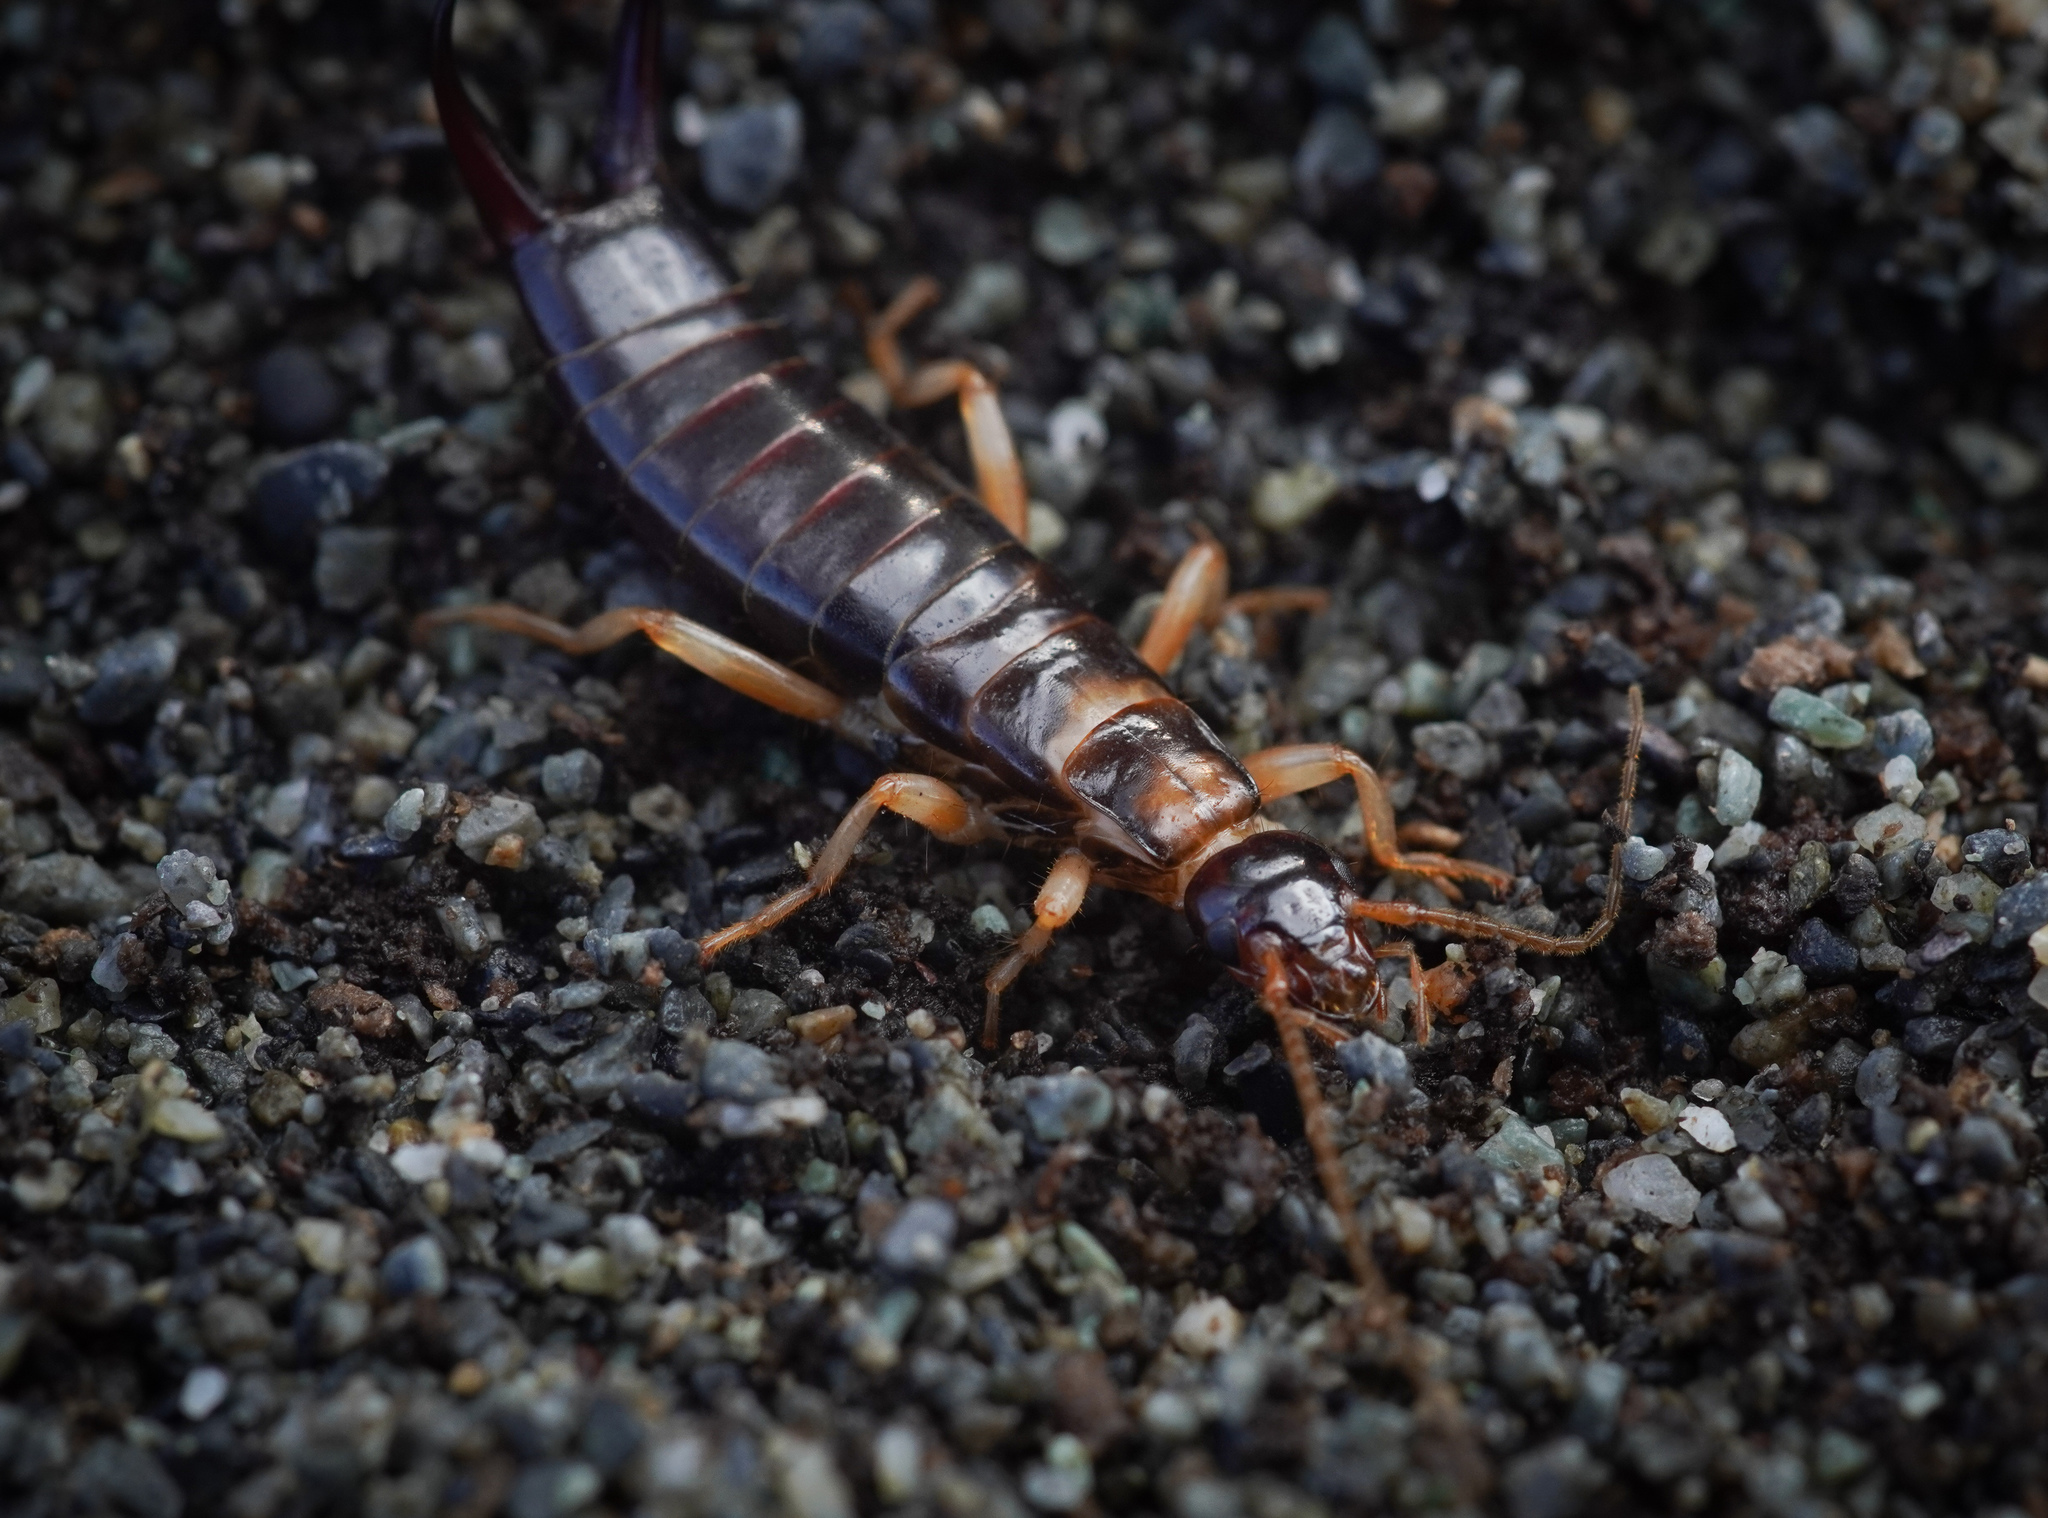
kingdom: Animalia
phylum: Arthropoda
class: Insecta
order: Dermaptera
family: Anisolabididae
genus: Anisolabis
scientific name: Anisolabis littorea
